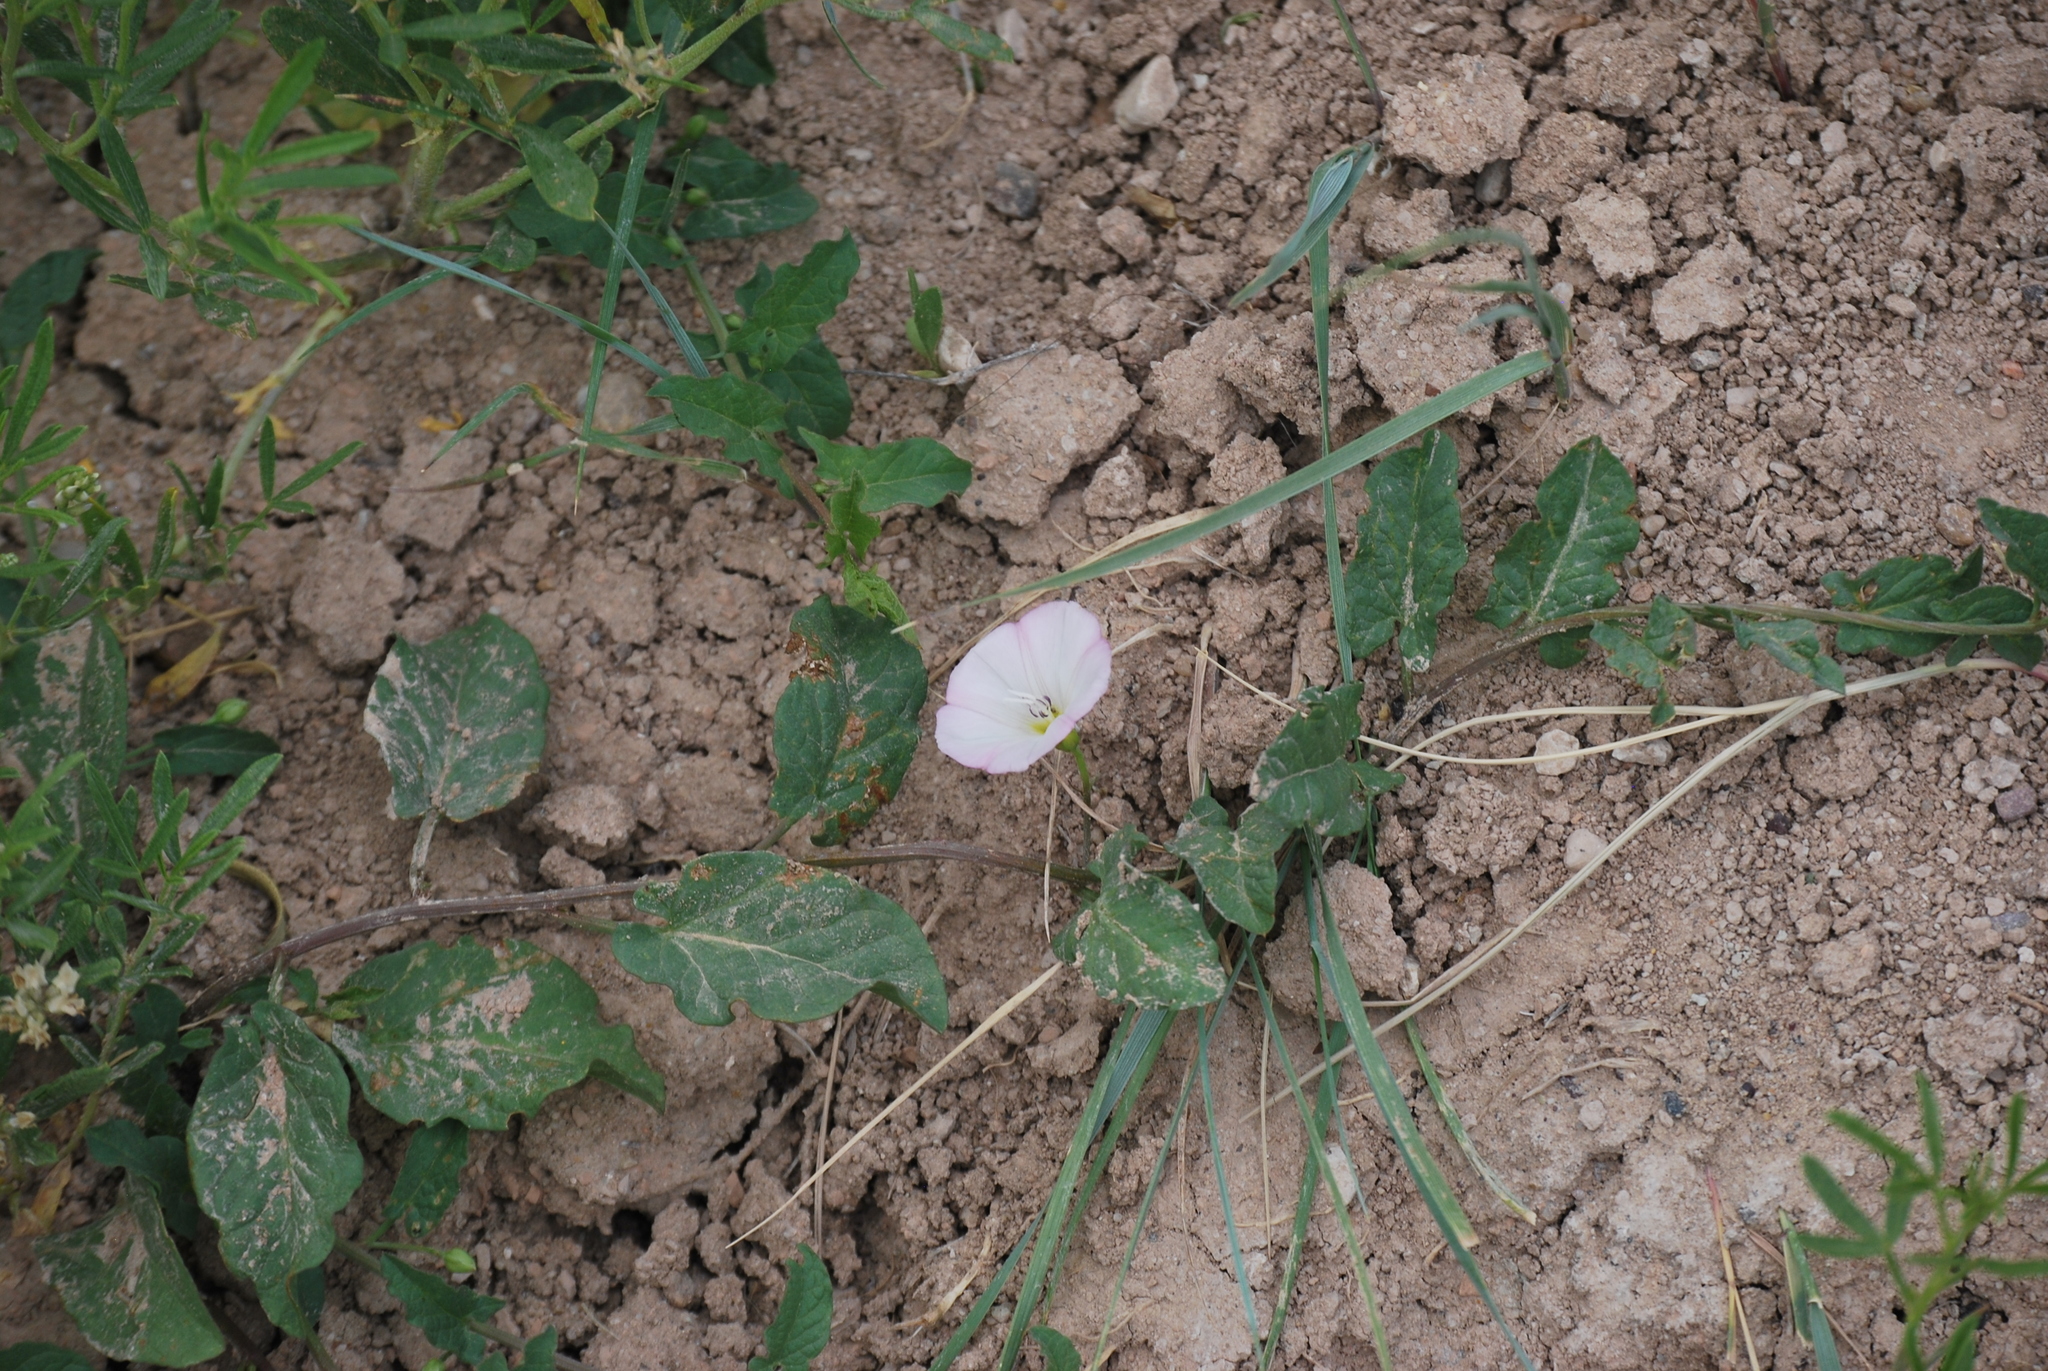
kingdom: Plantae
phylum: Tracheophyta
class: Magnoliopsida
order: Solanales
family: Convolvulaceae
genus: Convolvulus
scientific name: Convolvulus arvensis
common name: Field bindweed
